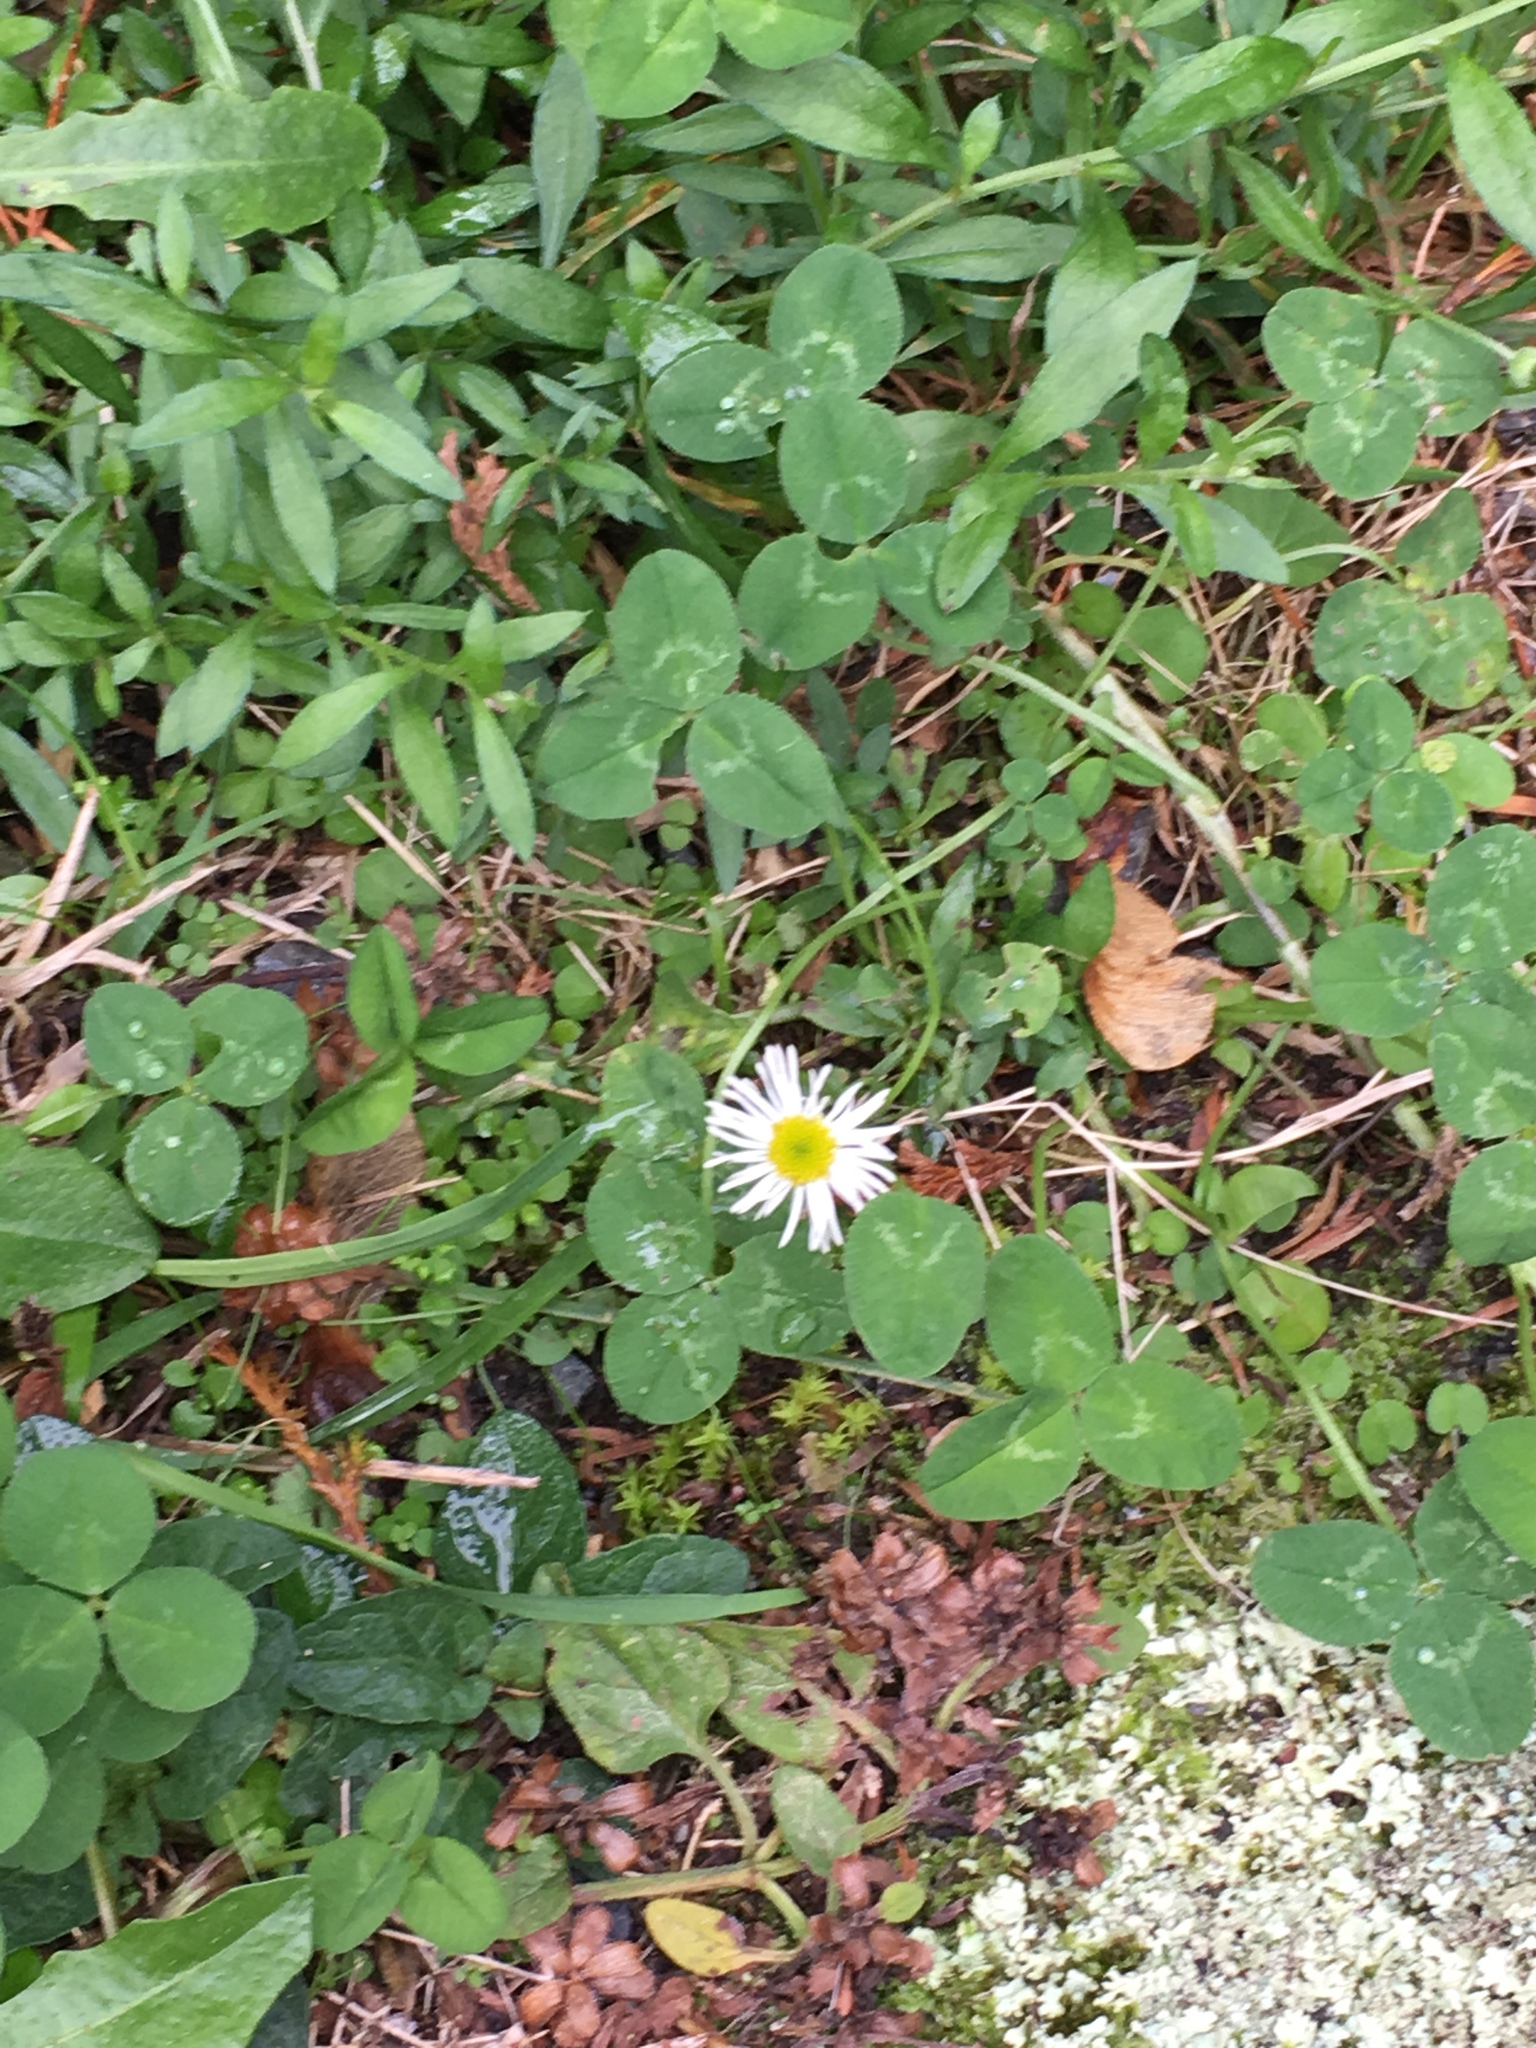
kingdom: Plantae
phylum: Tracheophyta
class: Magnoliopsida
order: Asterales
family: Asteraceae
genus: Bellis
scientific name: Bellis perennis
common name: Lawndaisy
